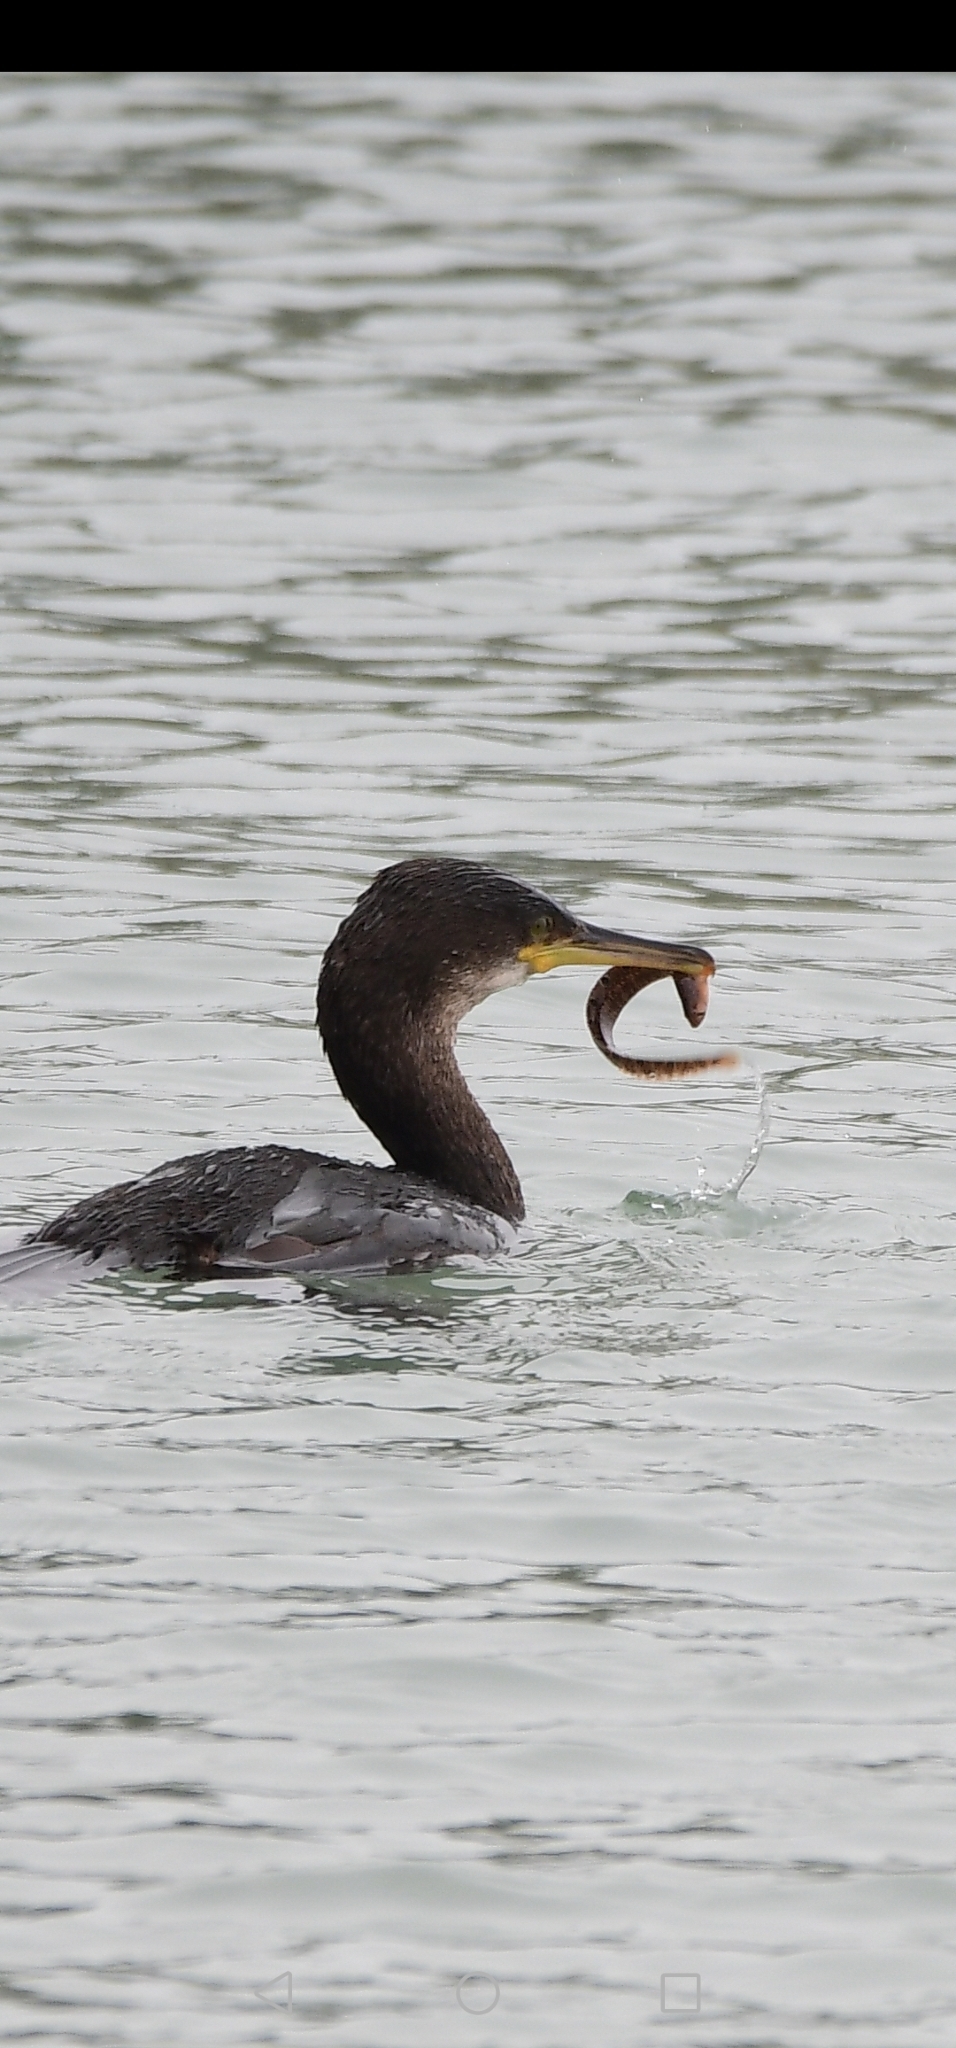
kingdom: Animalia
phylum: Chordata
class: Aves
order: Suliformes
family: Phalacrocoracidae
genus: Phalacrocorax
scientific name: Phalacrocorax aristotelis
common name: European shag
